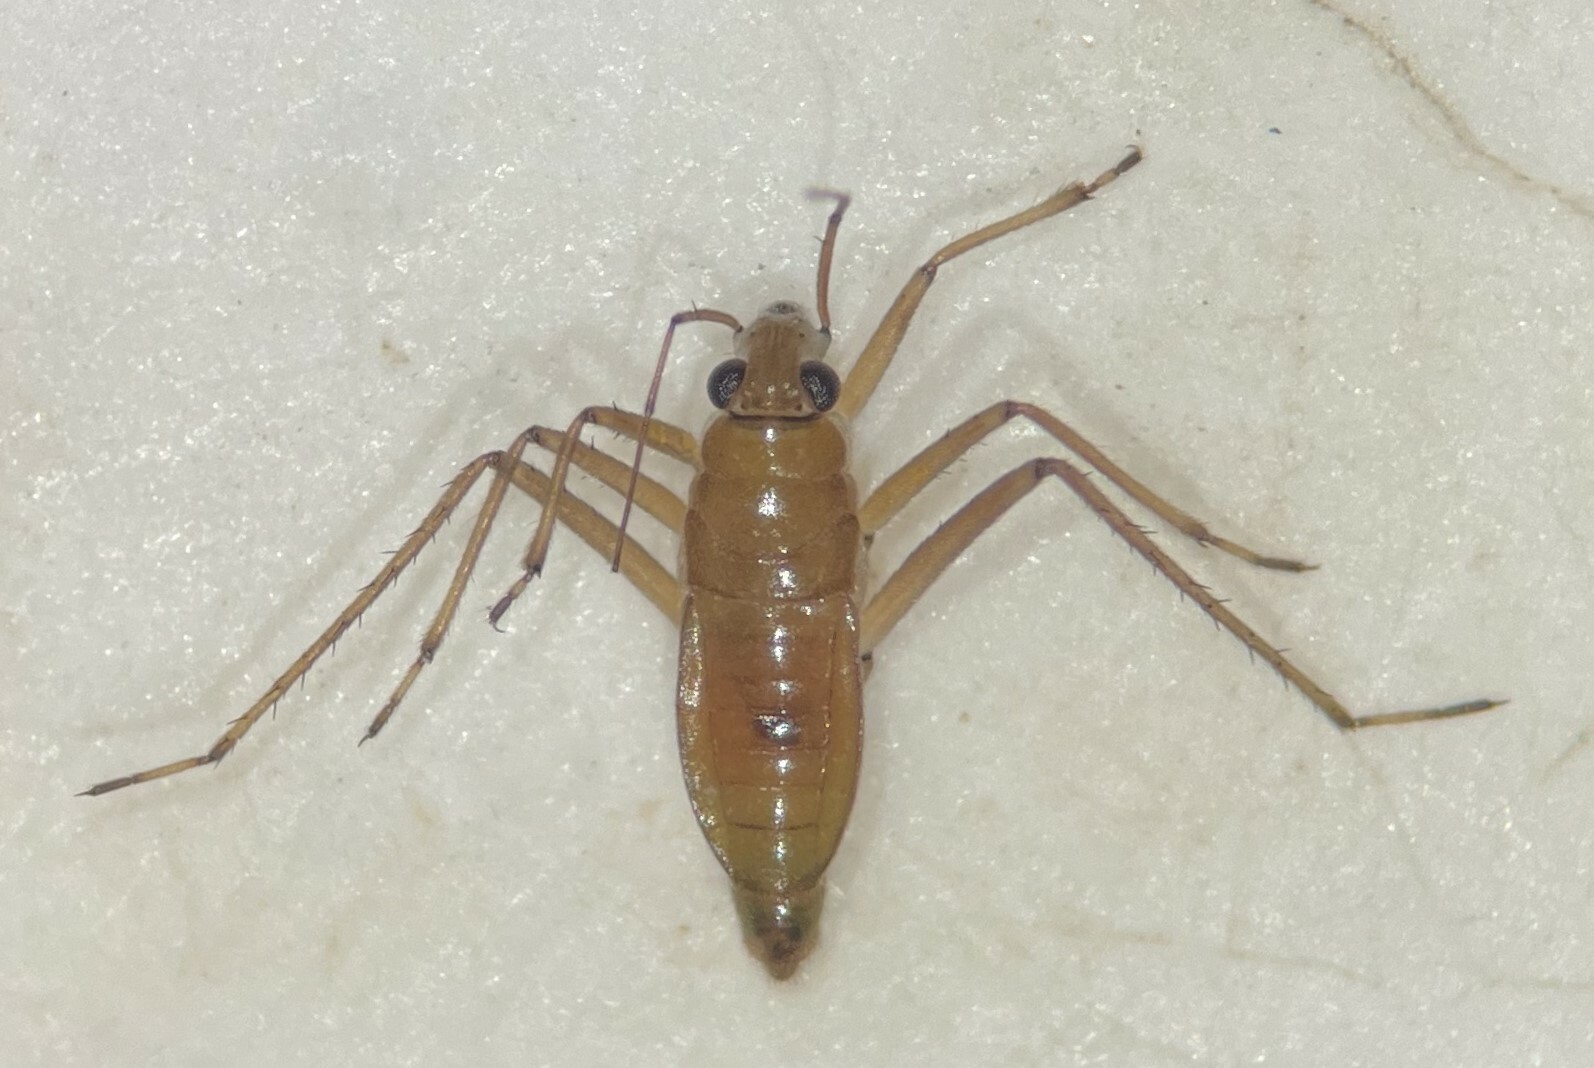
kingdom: Animalia
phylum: Arthropoda
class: Insecta
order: Hemiptera
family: Mesoveliidae
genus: Mesovelia
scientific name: Mesovelia mulsanti
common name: Water treaders
